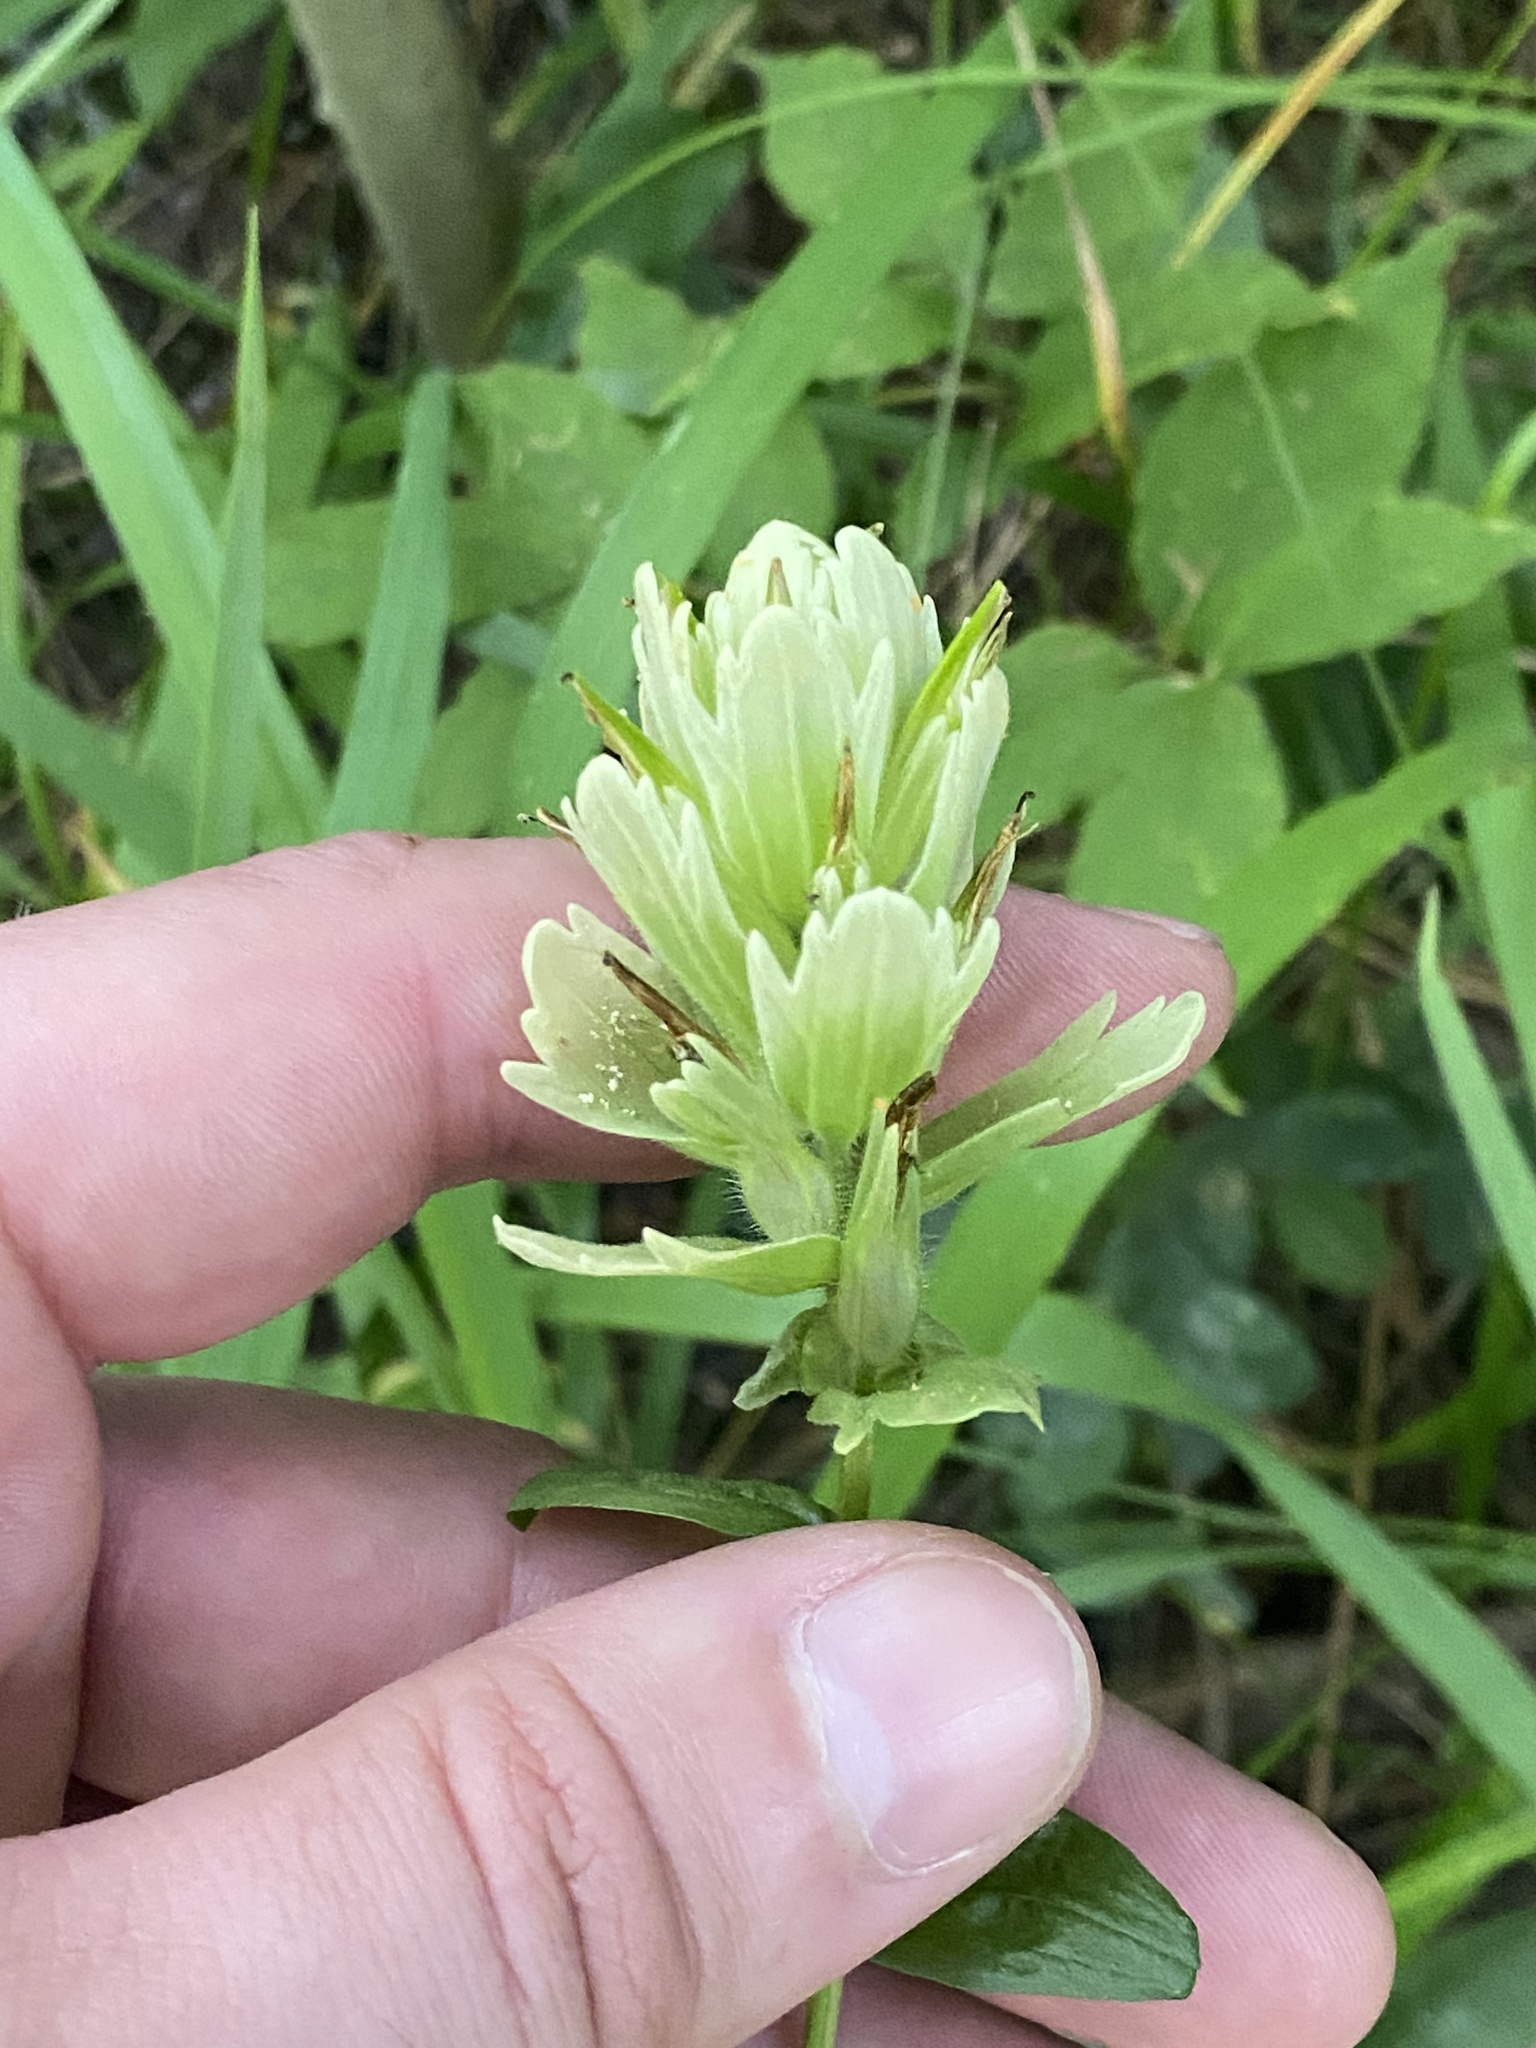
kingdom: Plantae
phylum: Tracheophyta
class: Magnoliopsida
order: Lamiales
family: Orobanchaceae
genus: Castilleja
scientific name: Castilleja septentrionalis
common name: Northeastern paintbrush
